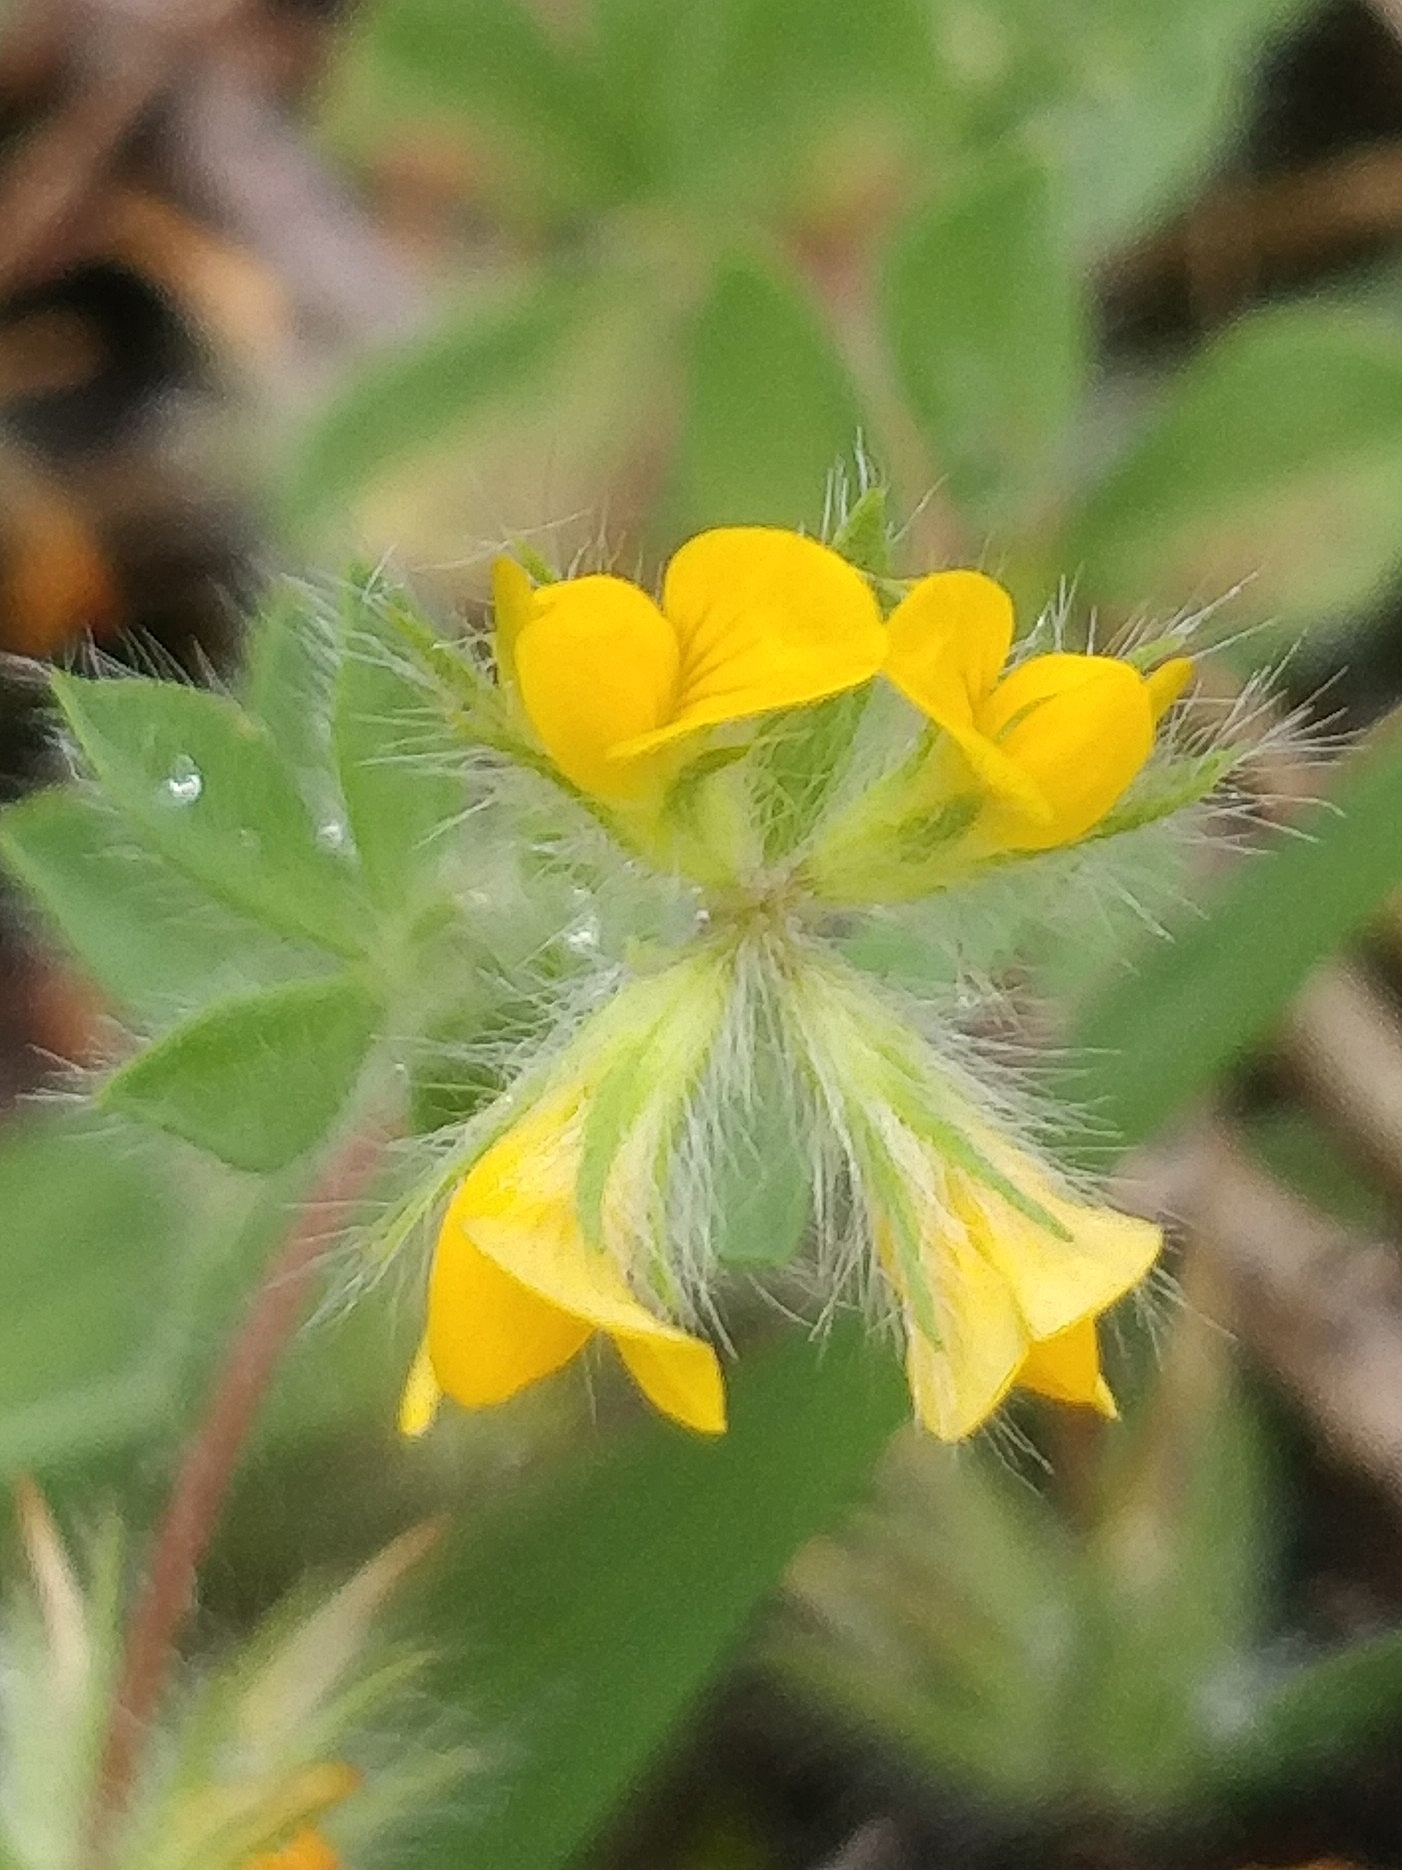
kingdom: Plantae
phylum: Tracheophyta
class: Magnoliopsida
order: Fabales
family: Fabaceae
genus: Lotus
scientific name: Lotus hispidus
